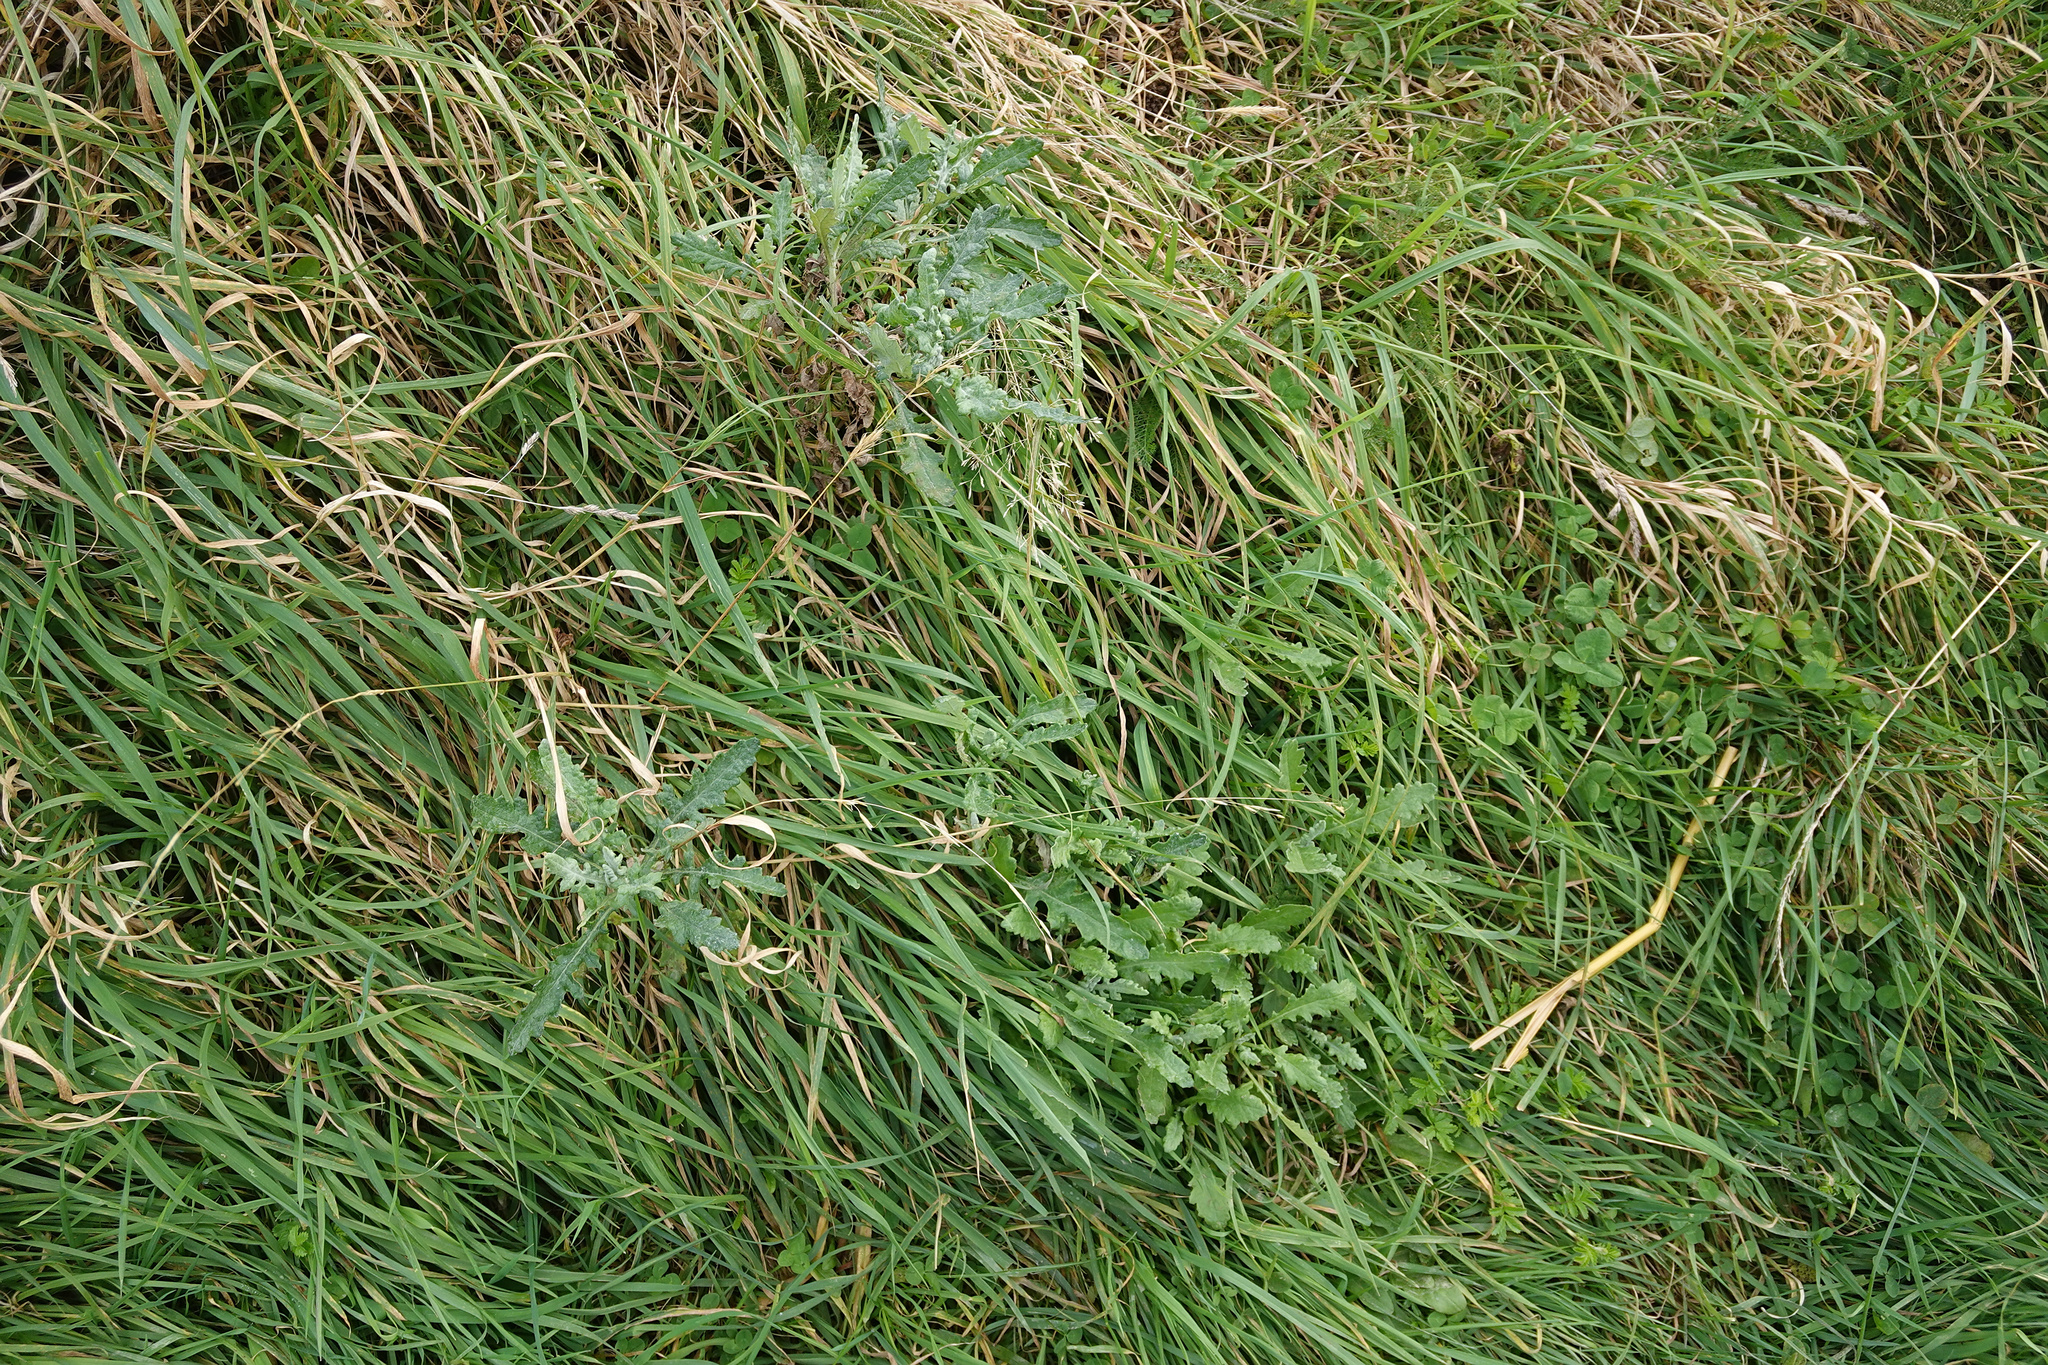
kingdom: Plantae
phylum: Tracheophyta
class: Magnoliopsida
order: Asterales
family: Asteraceae
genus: Senecio
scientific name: Senecio glomeratus
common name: Cutleaf burnweed
